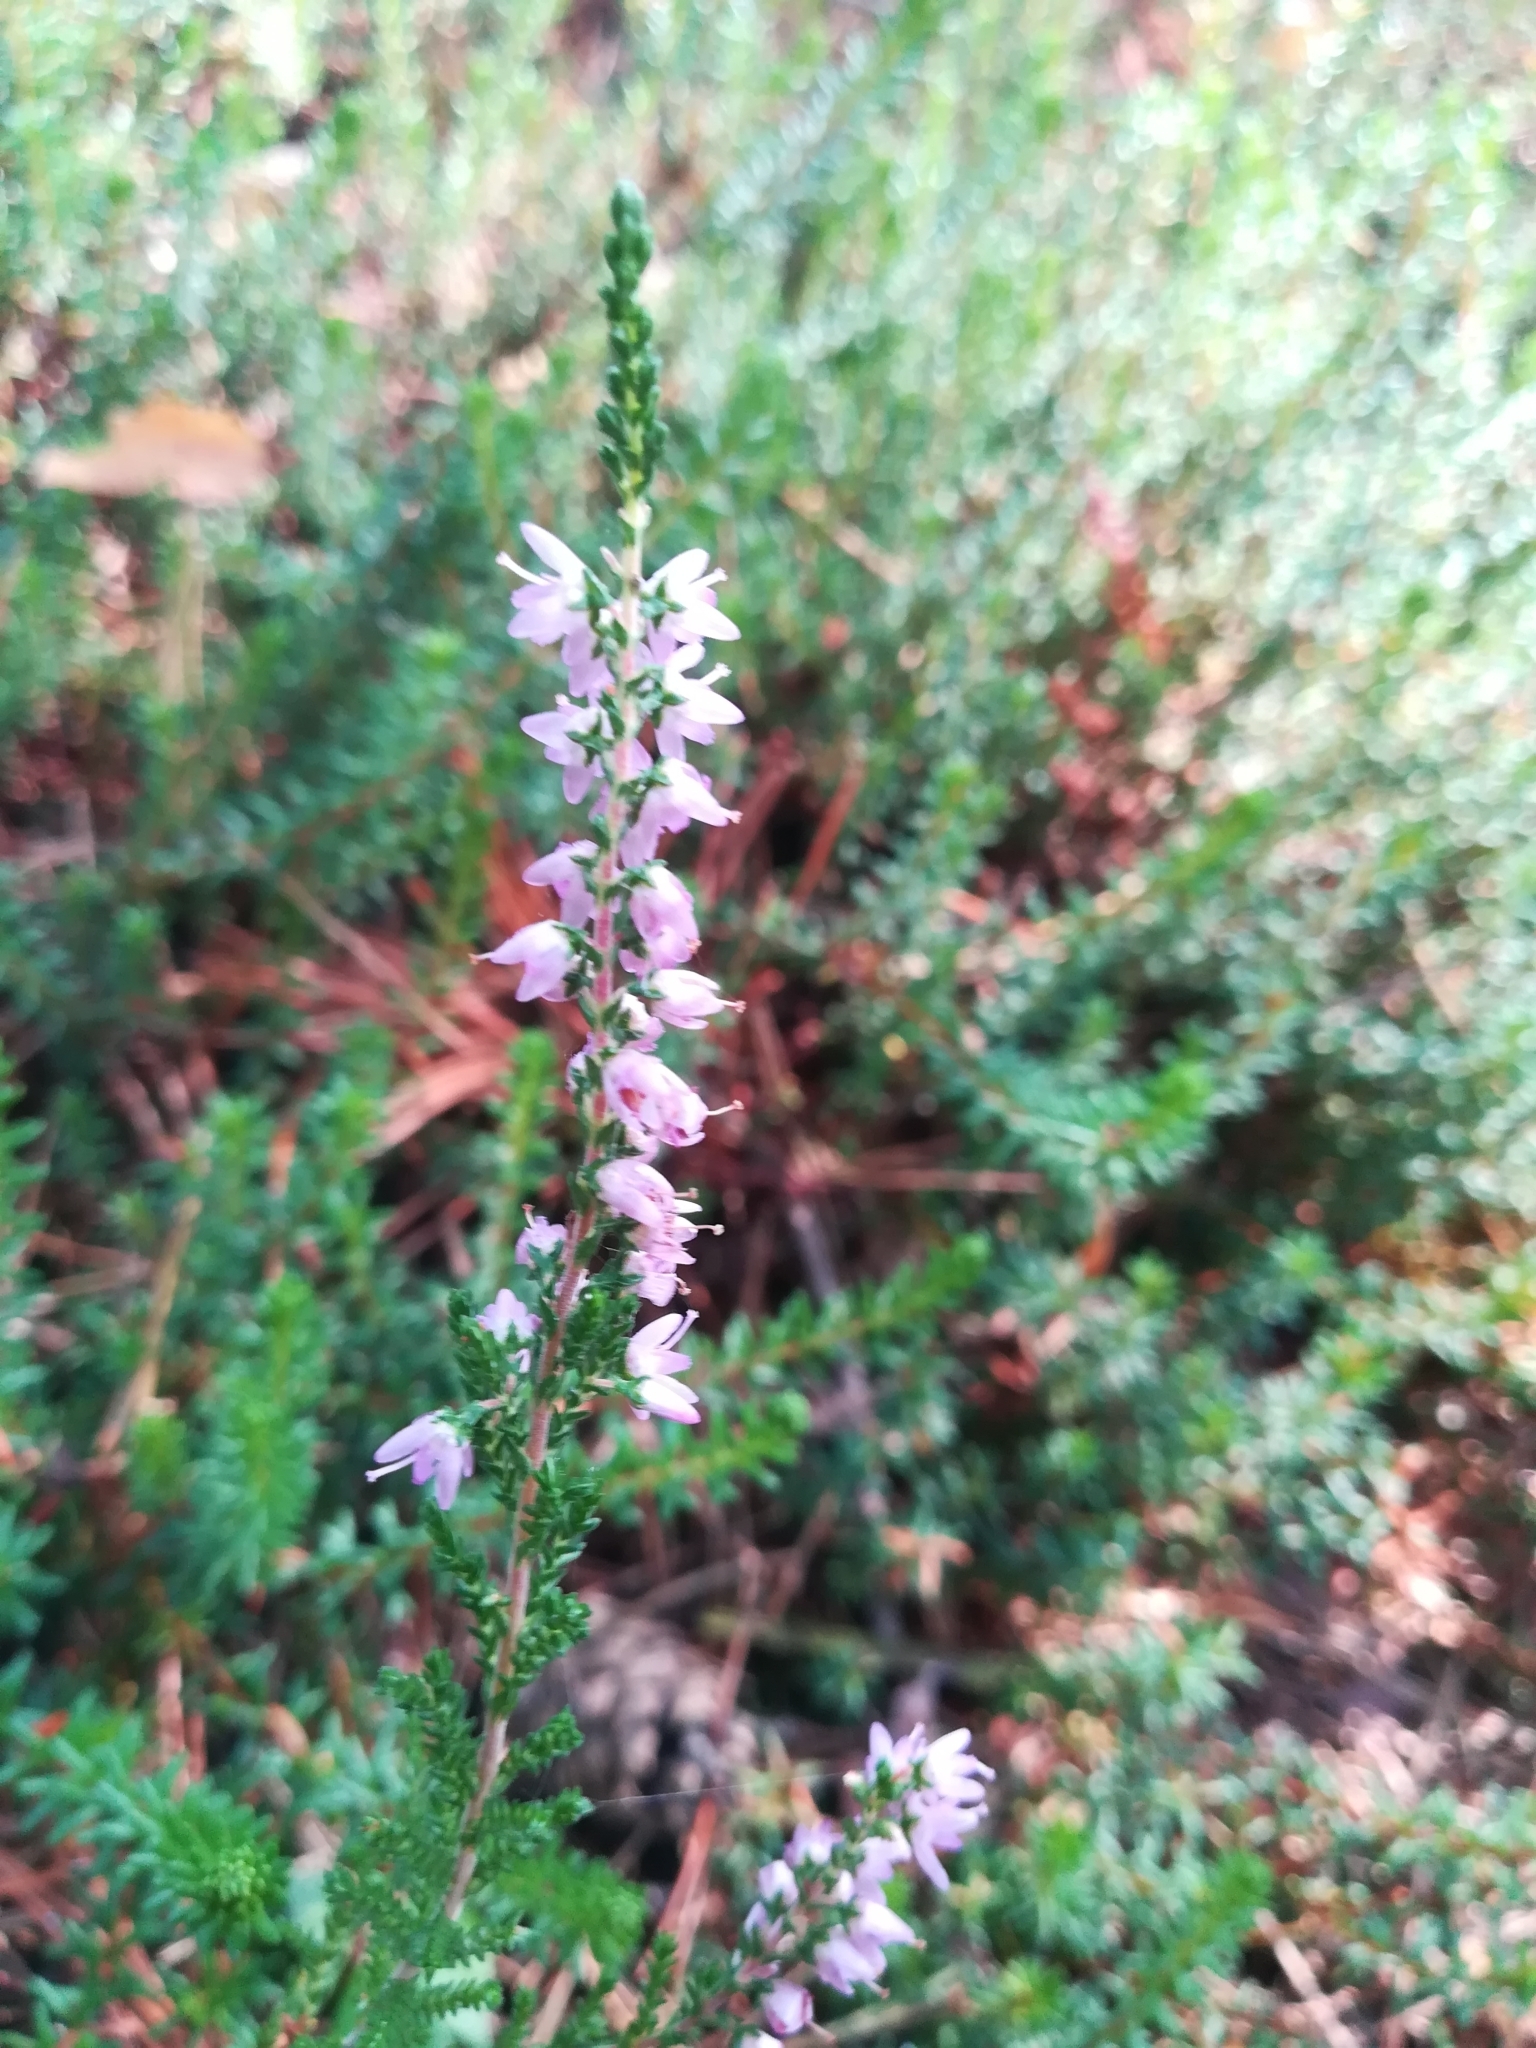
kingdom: Plantae
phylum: Tracheophyta
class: Magnoliopsida
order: Ericales
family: Ericaceae
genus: Calluna
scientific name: Calluna vulgaris
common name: Heather
